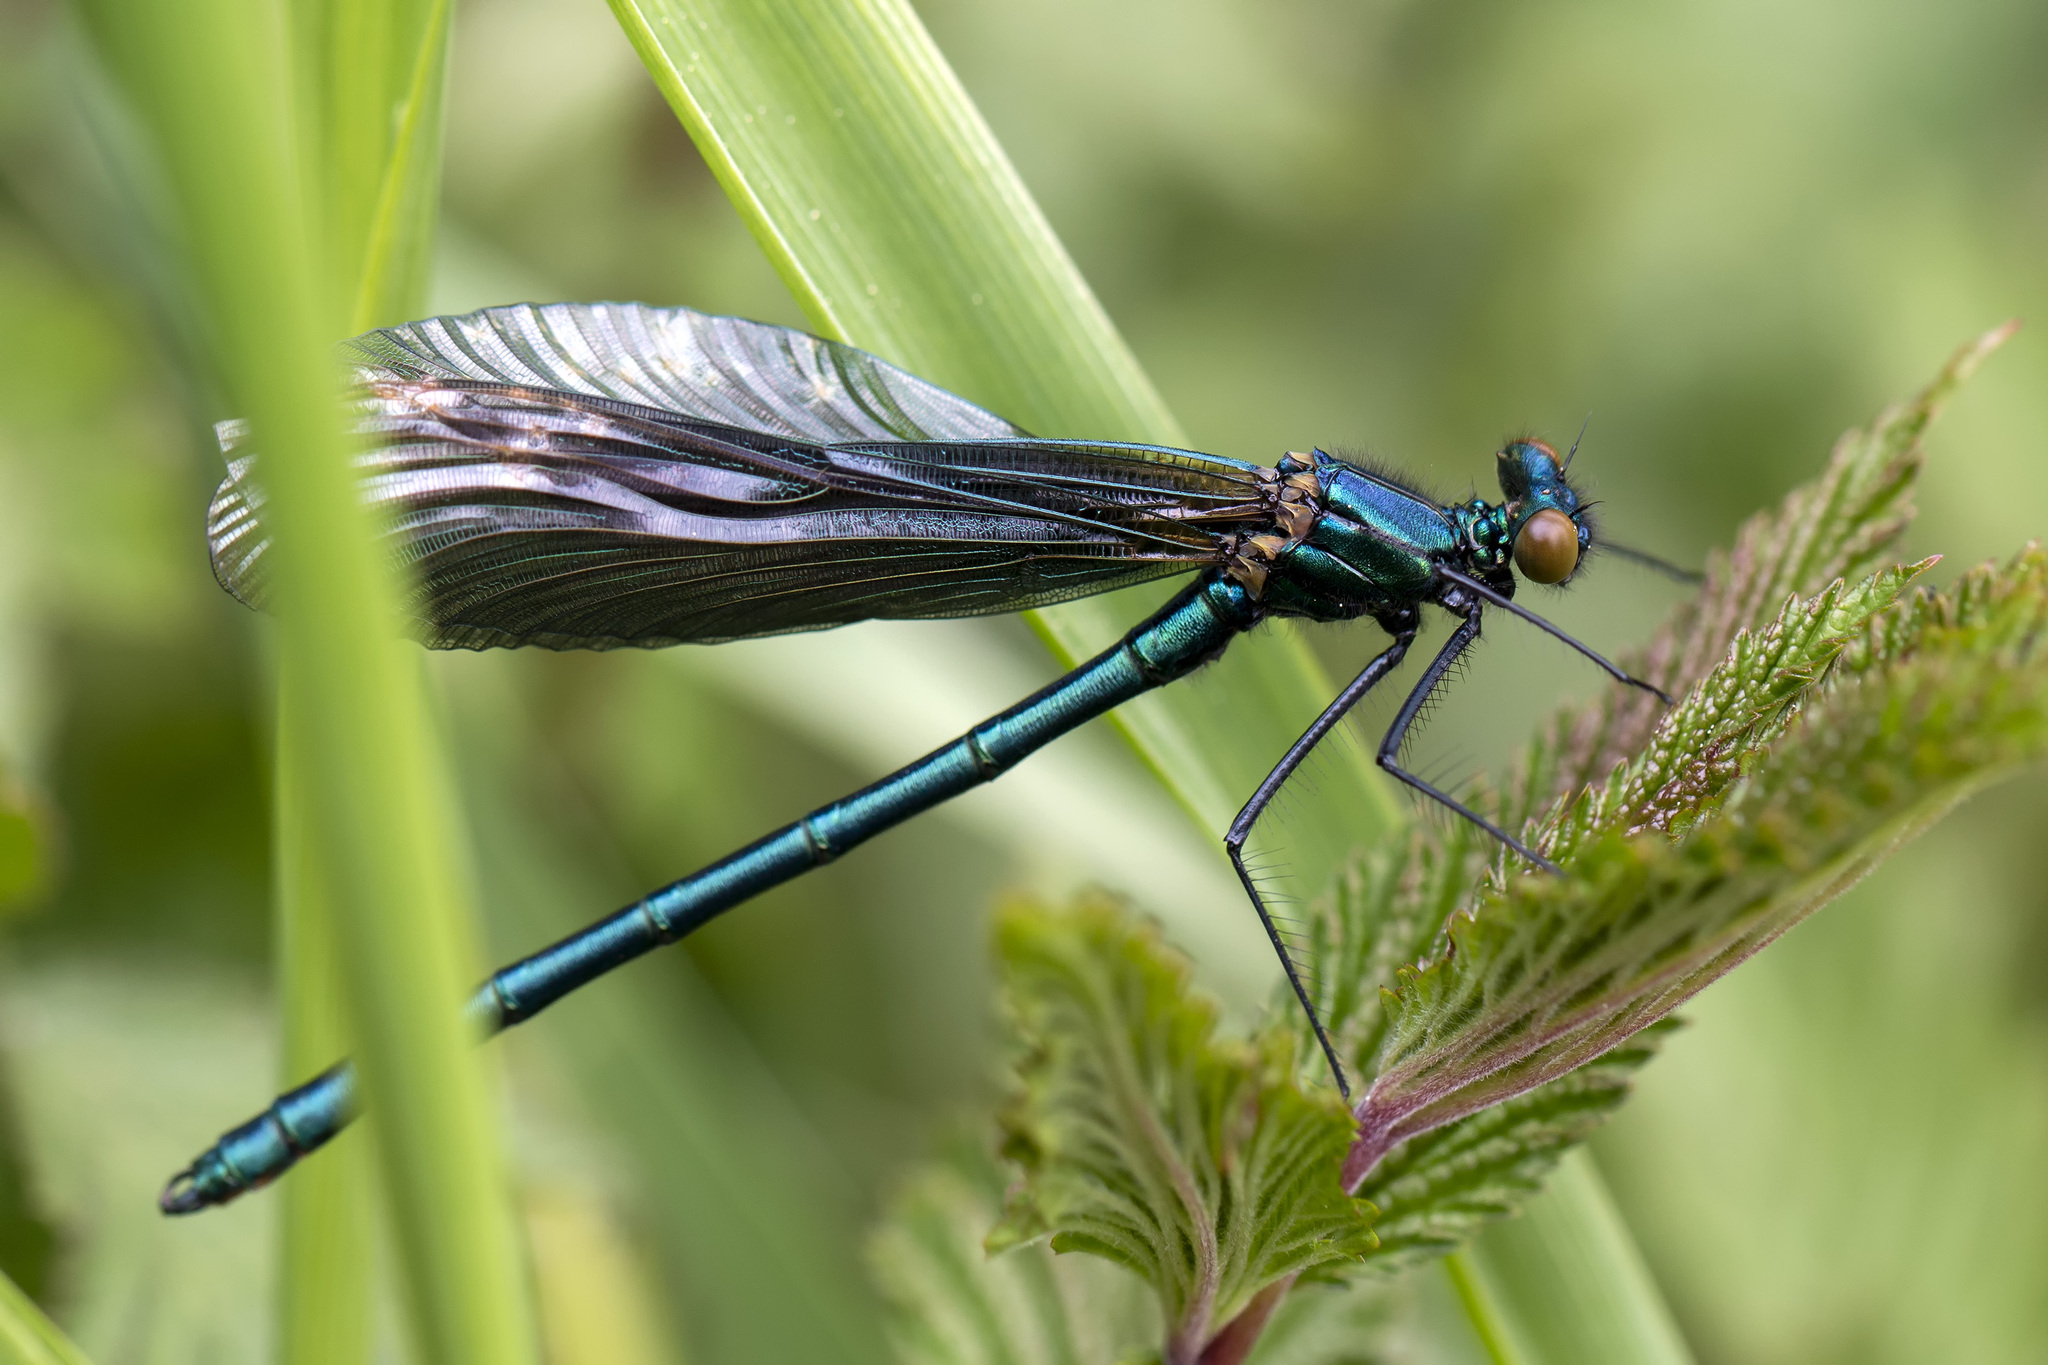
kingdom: Animalia
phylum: Arthropoda
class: Insecta
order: Odonata
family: Calopterygidae
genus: Calopteryx
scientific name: Calopteryx virgo
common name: Beautiful demoiselle
